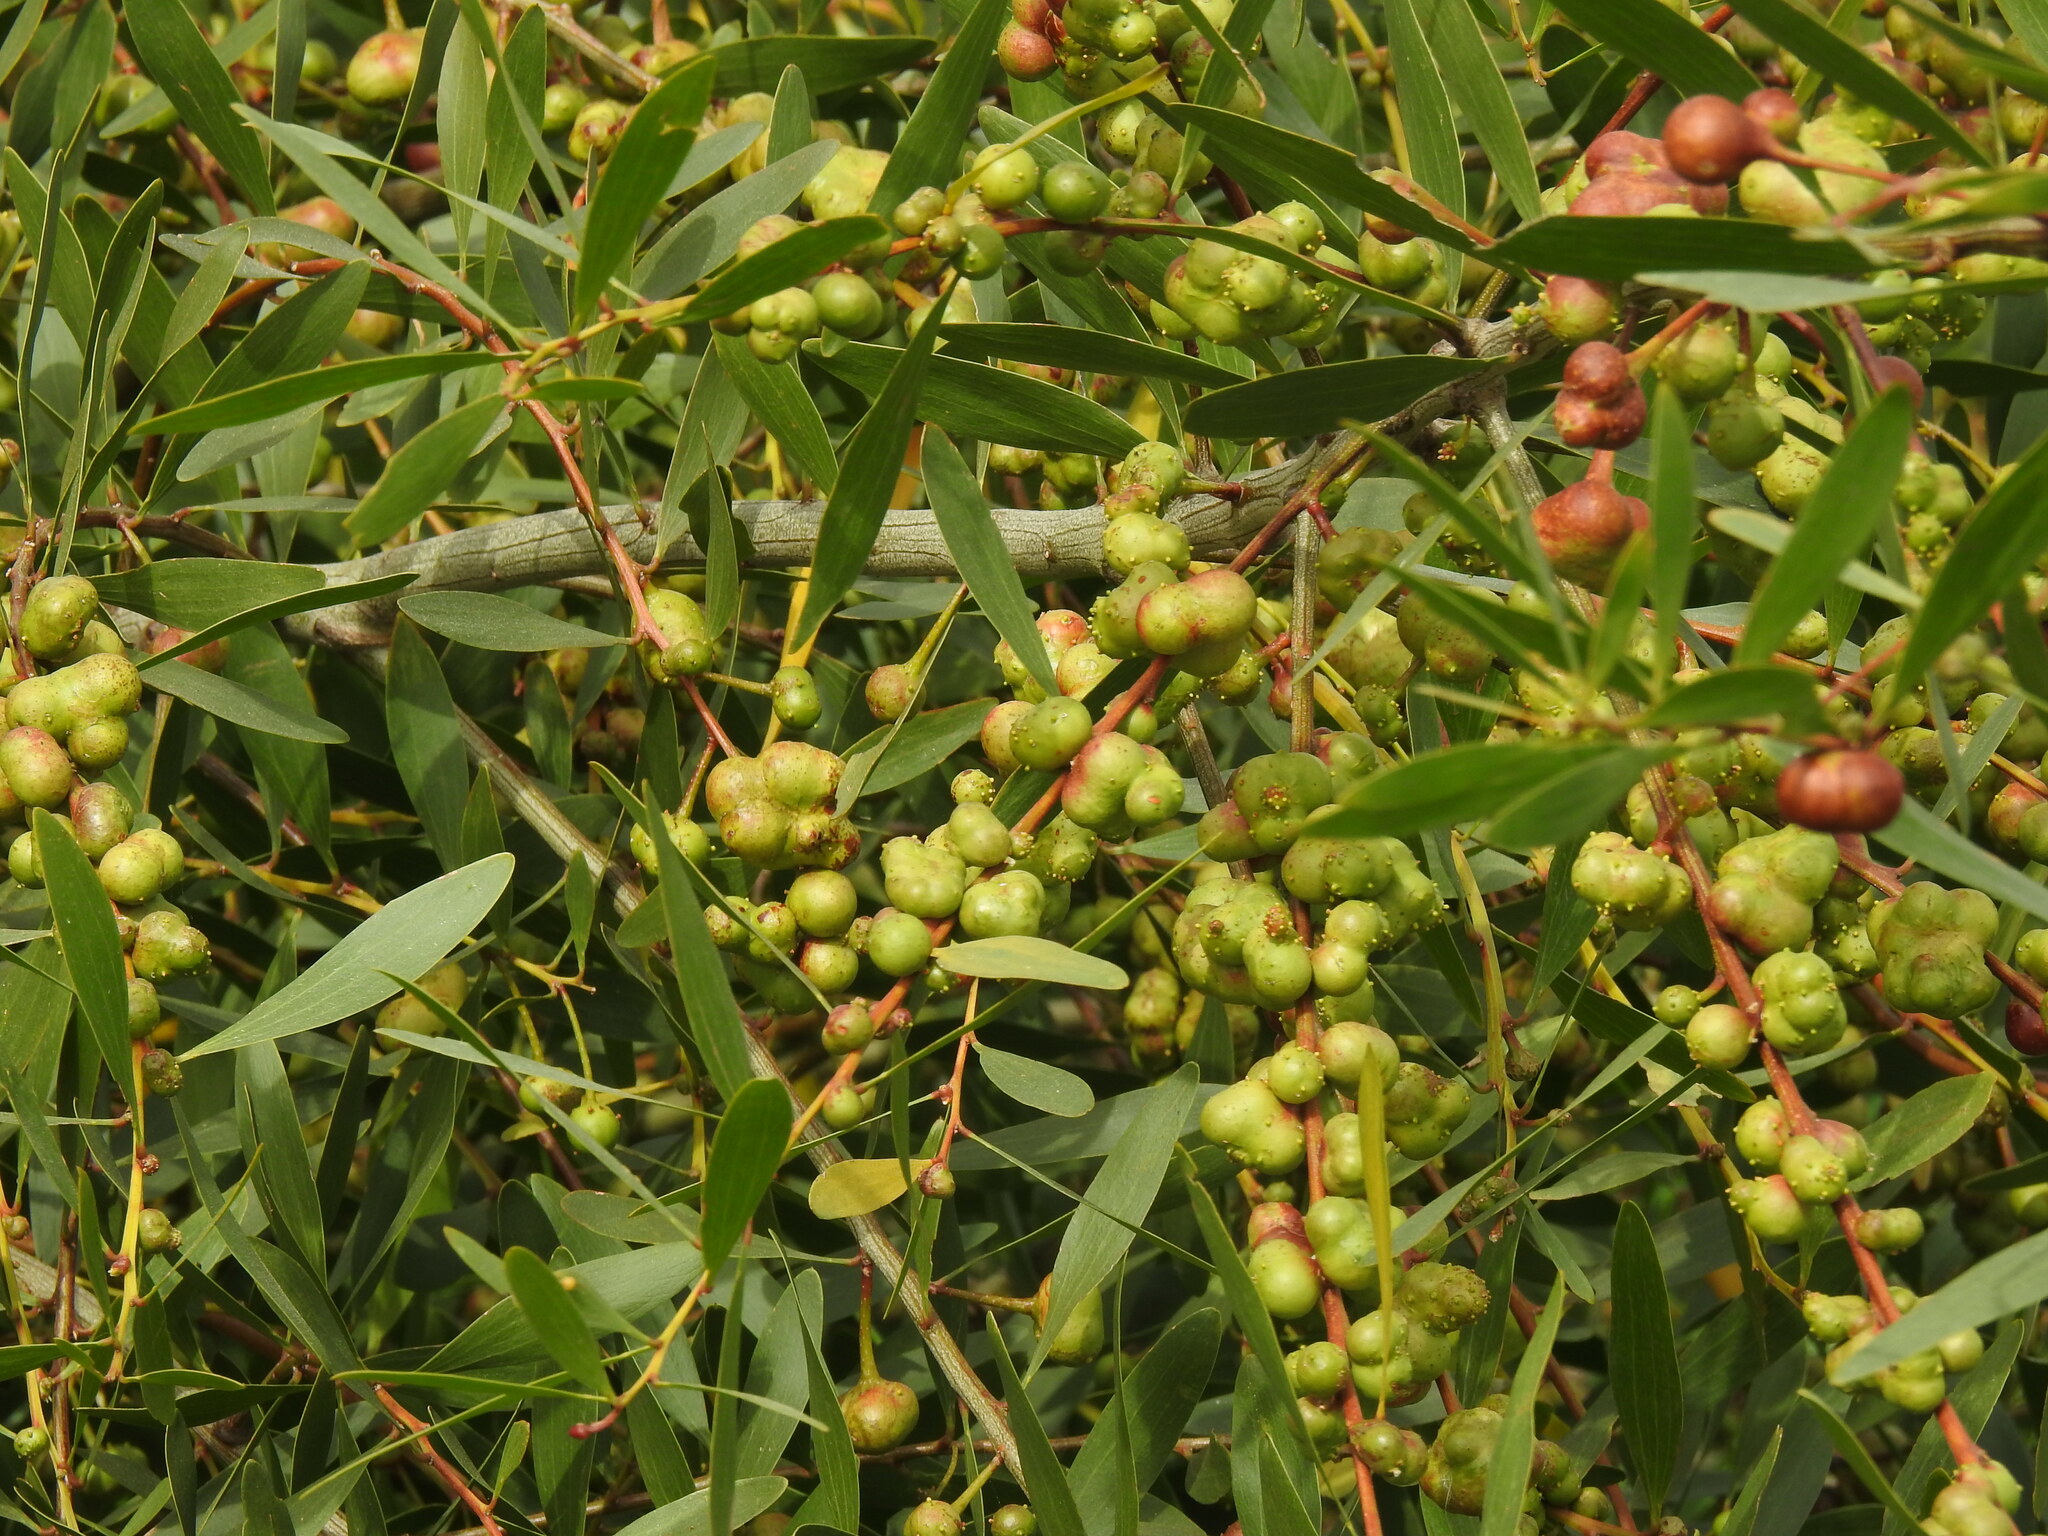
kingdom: Animalia
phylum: Arthropoda
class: Insecta
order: Hymenoptera
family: Pteromalidae
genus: Trichilogaster
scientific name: Trichilogaster acaciaelongifoliae
